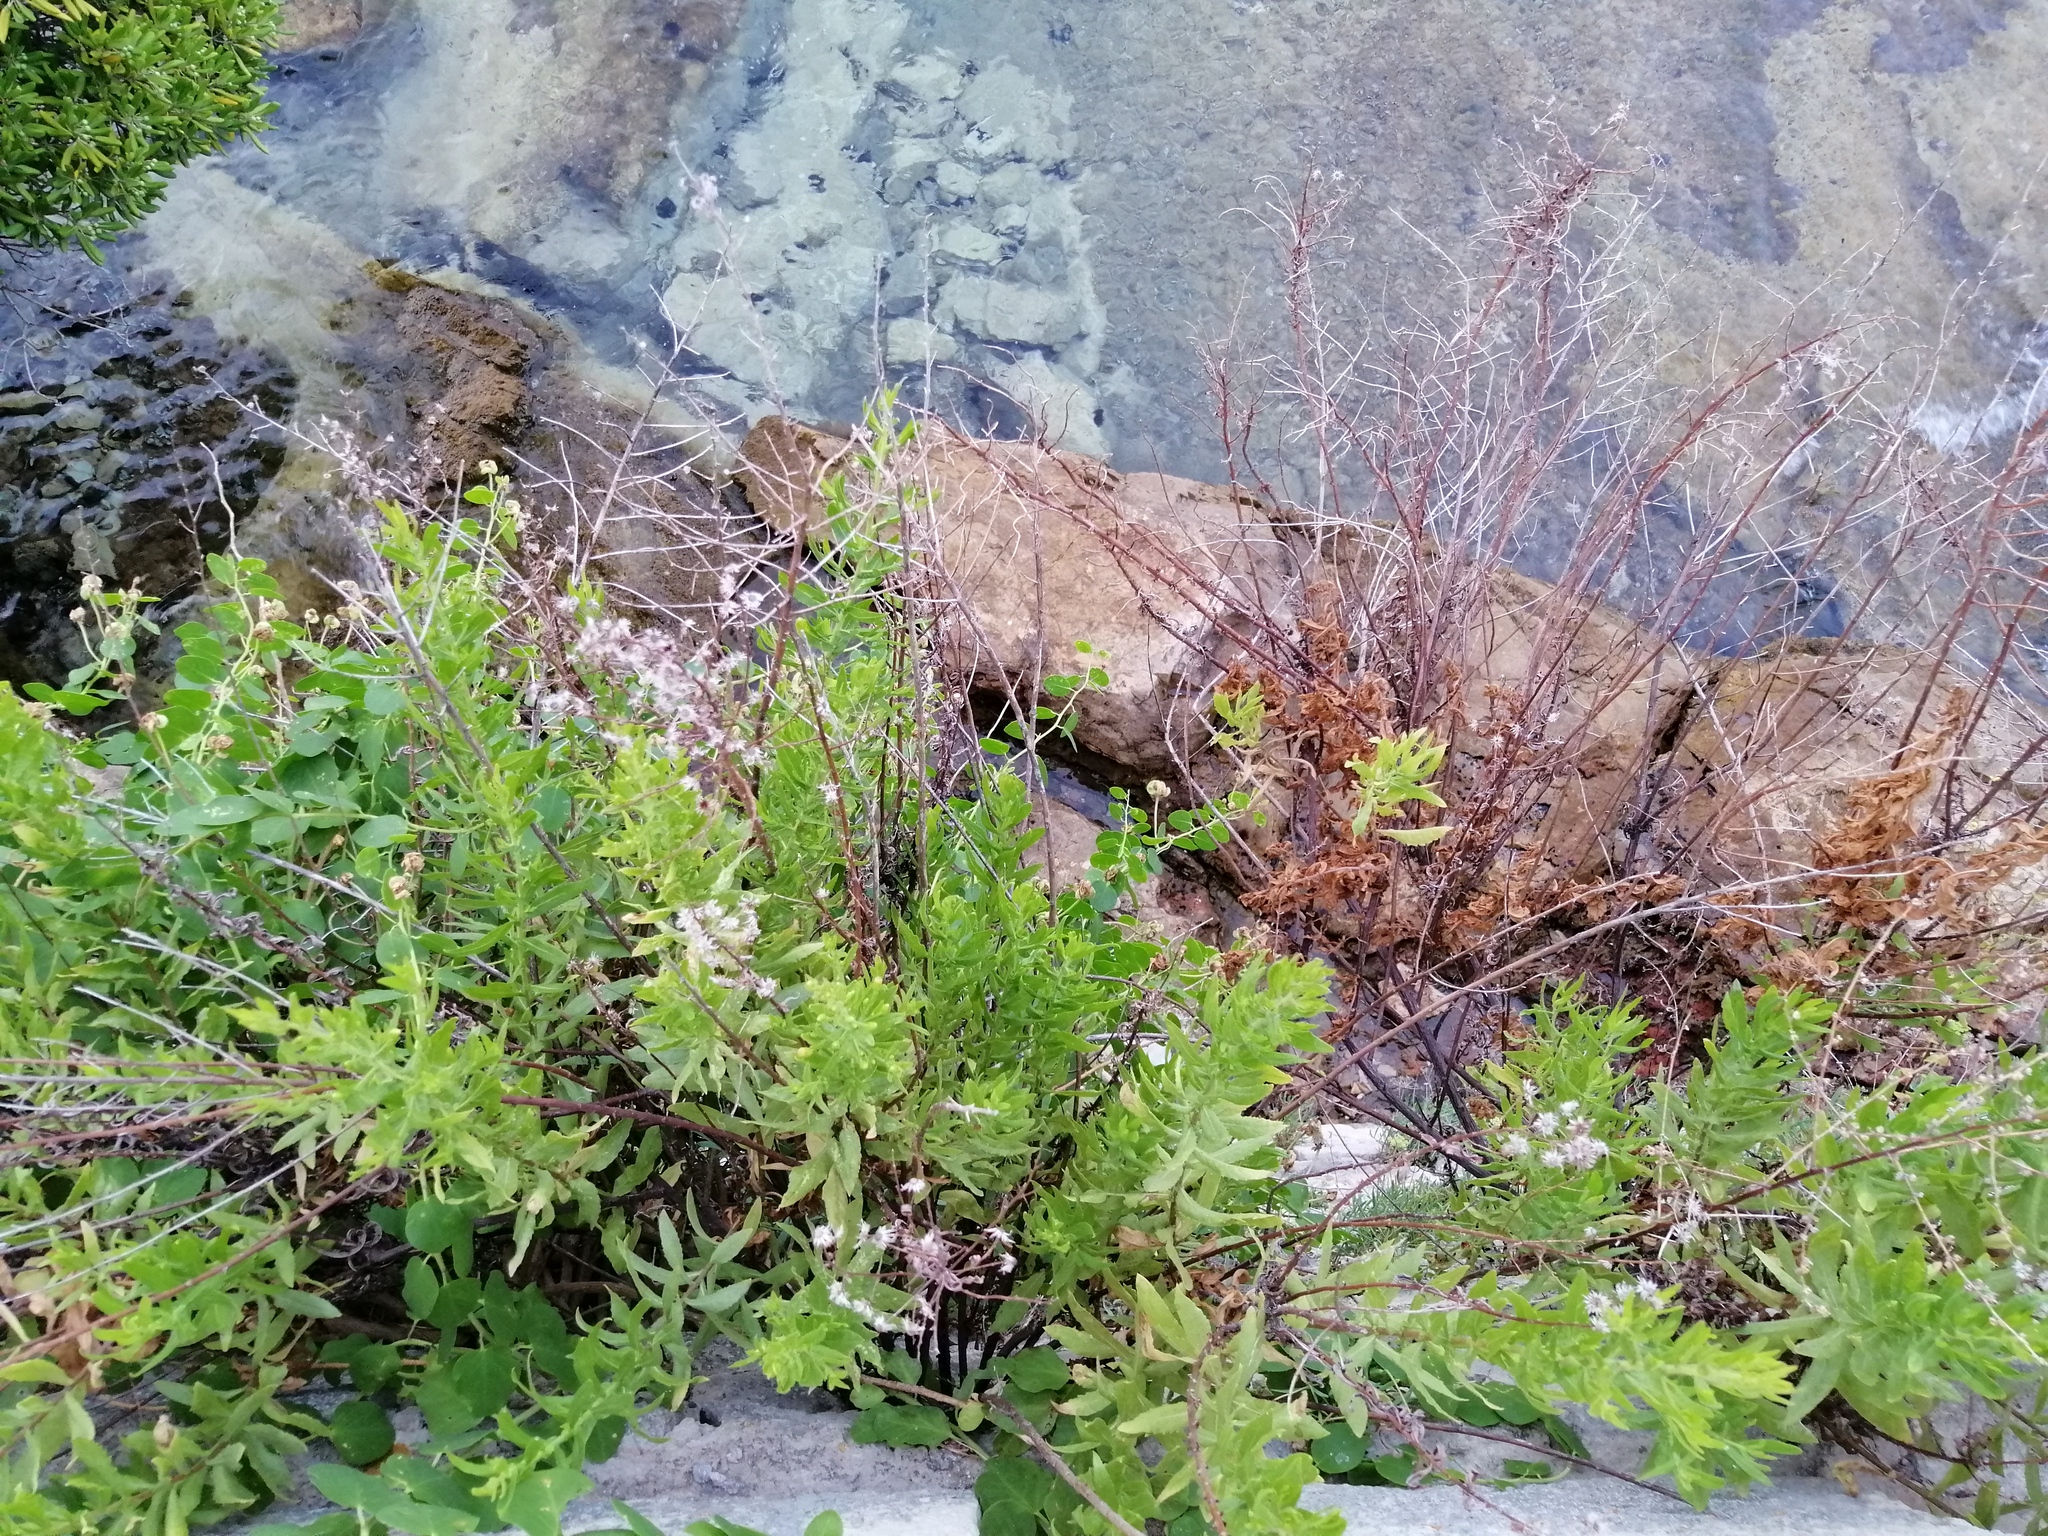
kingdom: Plantae
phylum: Tracheophyta
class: Magnoliopsida
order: Asterales
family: Asteraceae
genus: Dittrichia
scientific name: Dittrichia viscosa
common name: Woody fleabane
